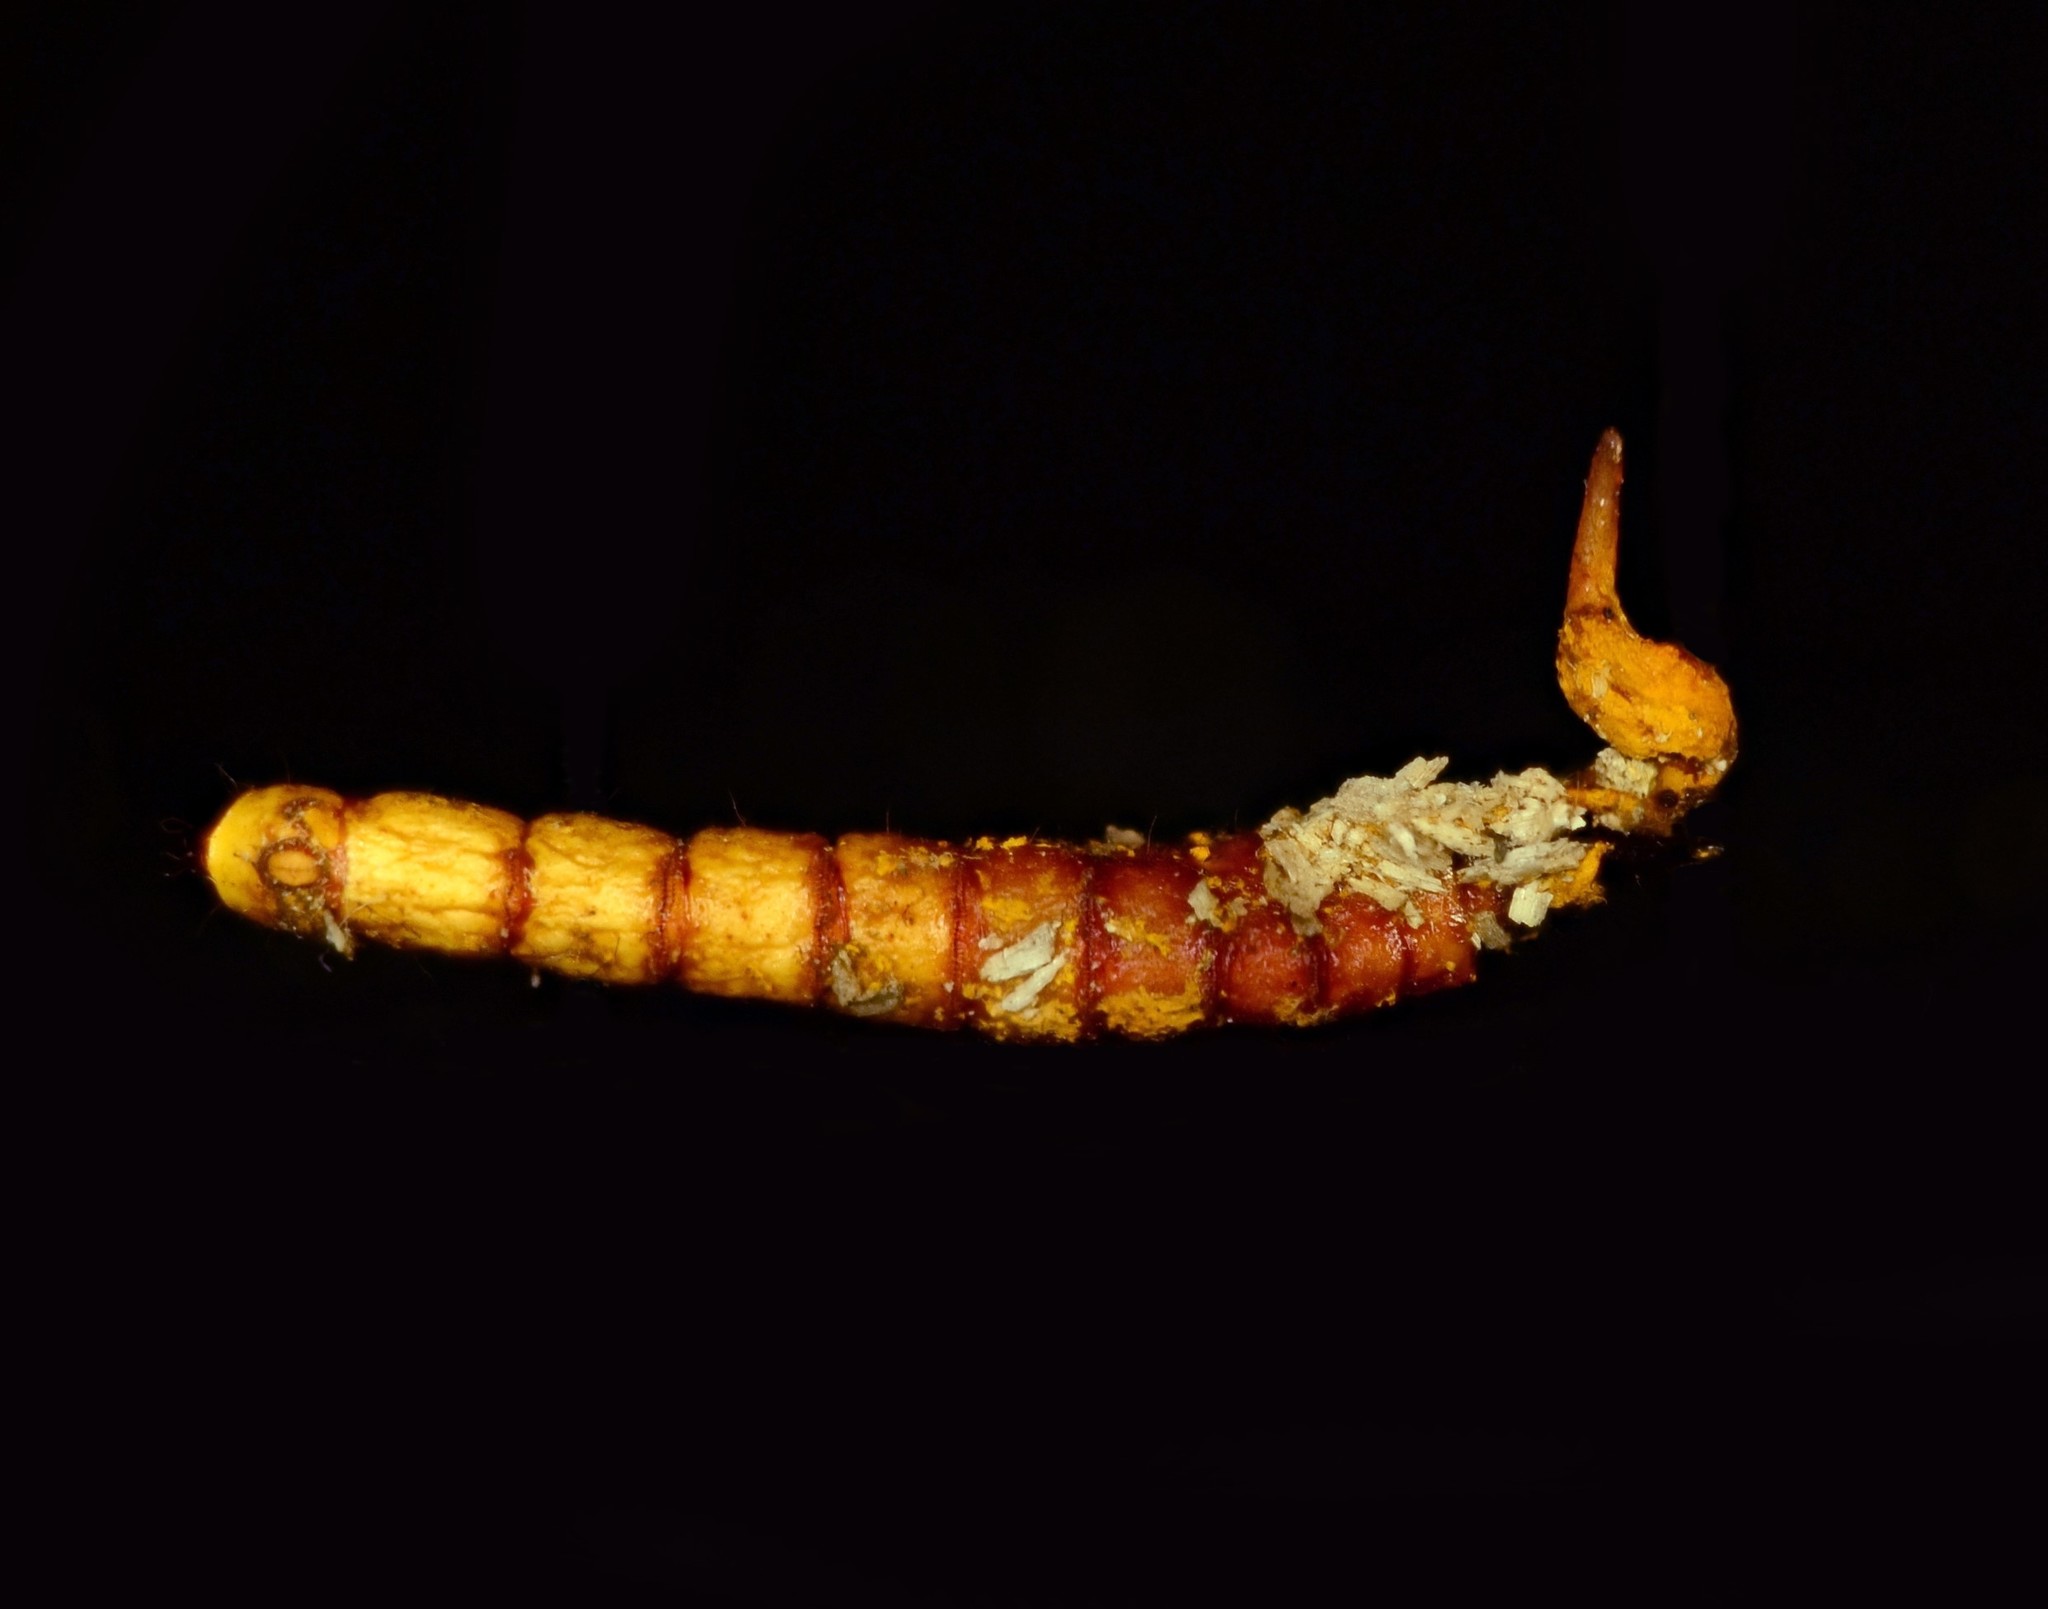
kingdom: Fungi
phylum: Ascomycota
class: Sordariomycetes
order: Hypocreales
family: Ophiocordycipitaceae
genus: Ophiocordyceps
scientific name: Ophiocordyceps variabilis
